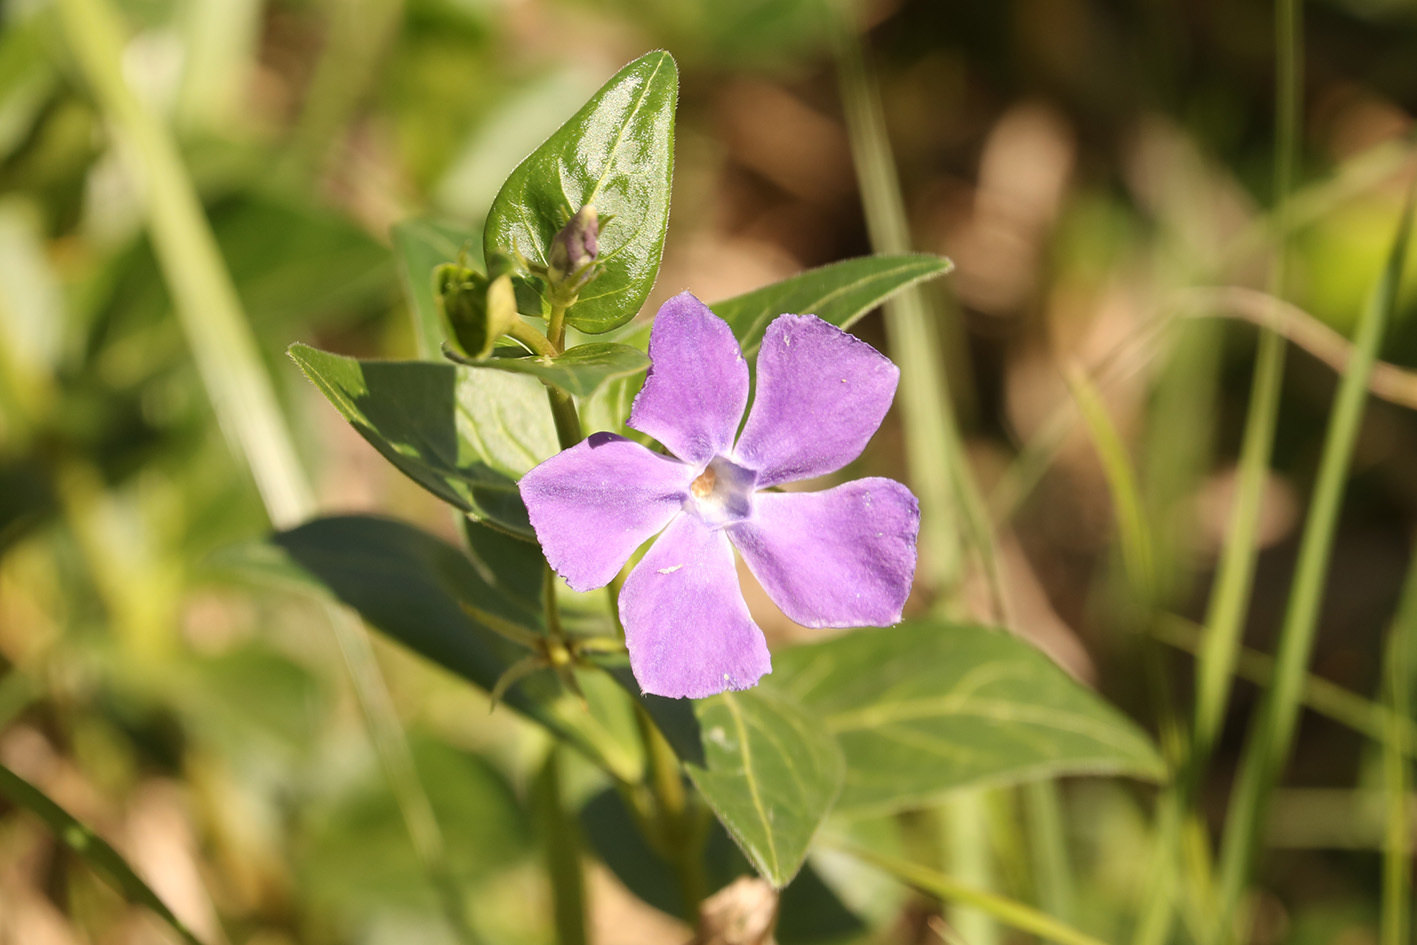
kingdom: Plantae
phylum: Tracheophyta
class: Magnoliopsida
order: Gentianales
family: Apocynaceae
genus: Vinca
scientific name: Vinca major
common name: Greater periwinkle
